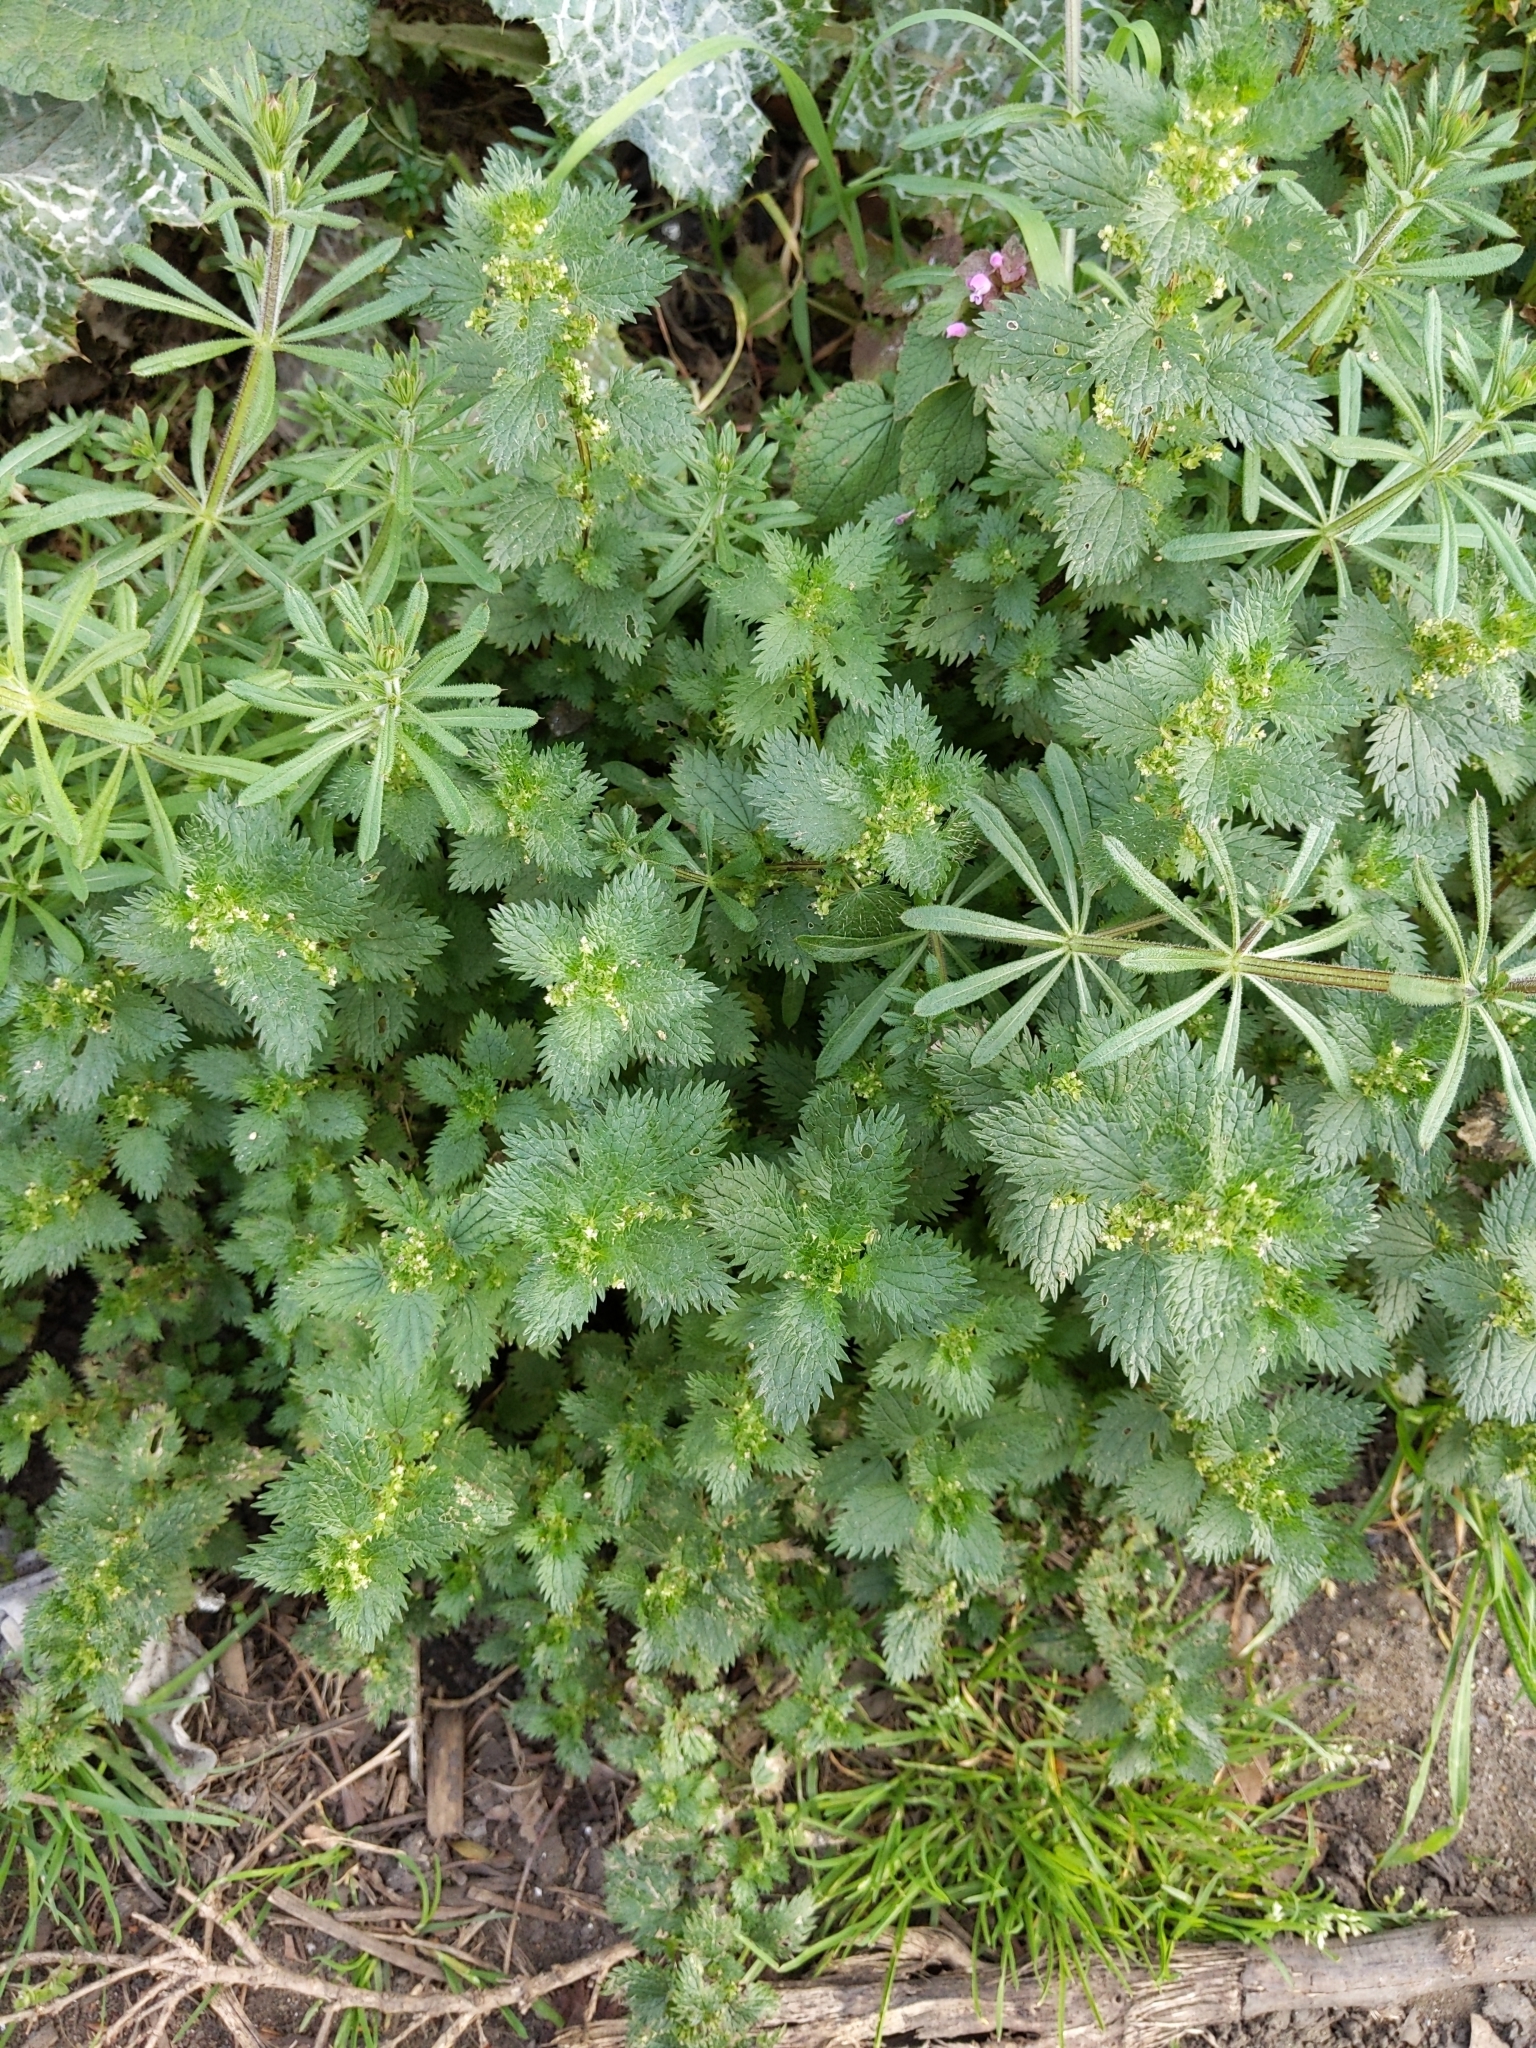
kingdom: Plantae
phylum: Tracheophyta
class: Magnoliopsida
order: Rosales
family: Urticaceae
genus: Urtica
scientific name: Urtica urens
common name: Dwarf nettle
